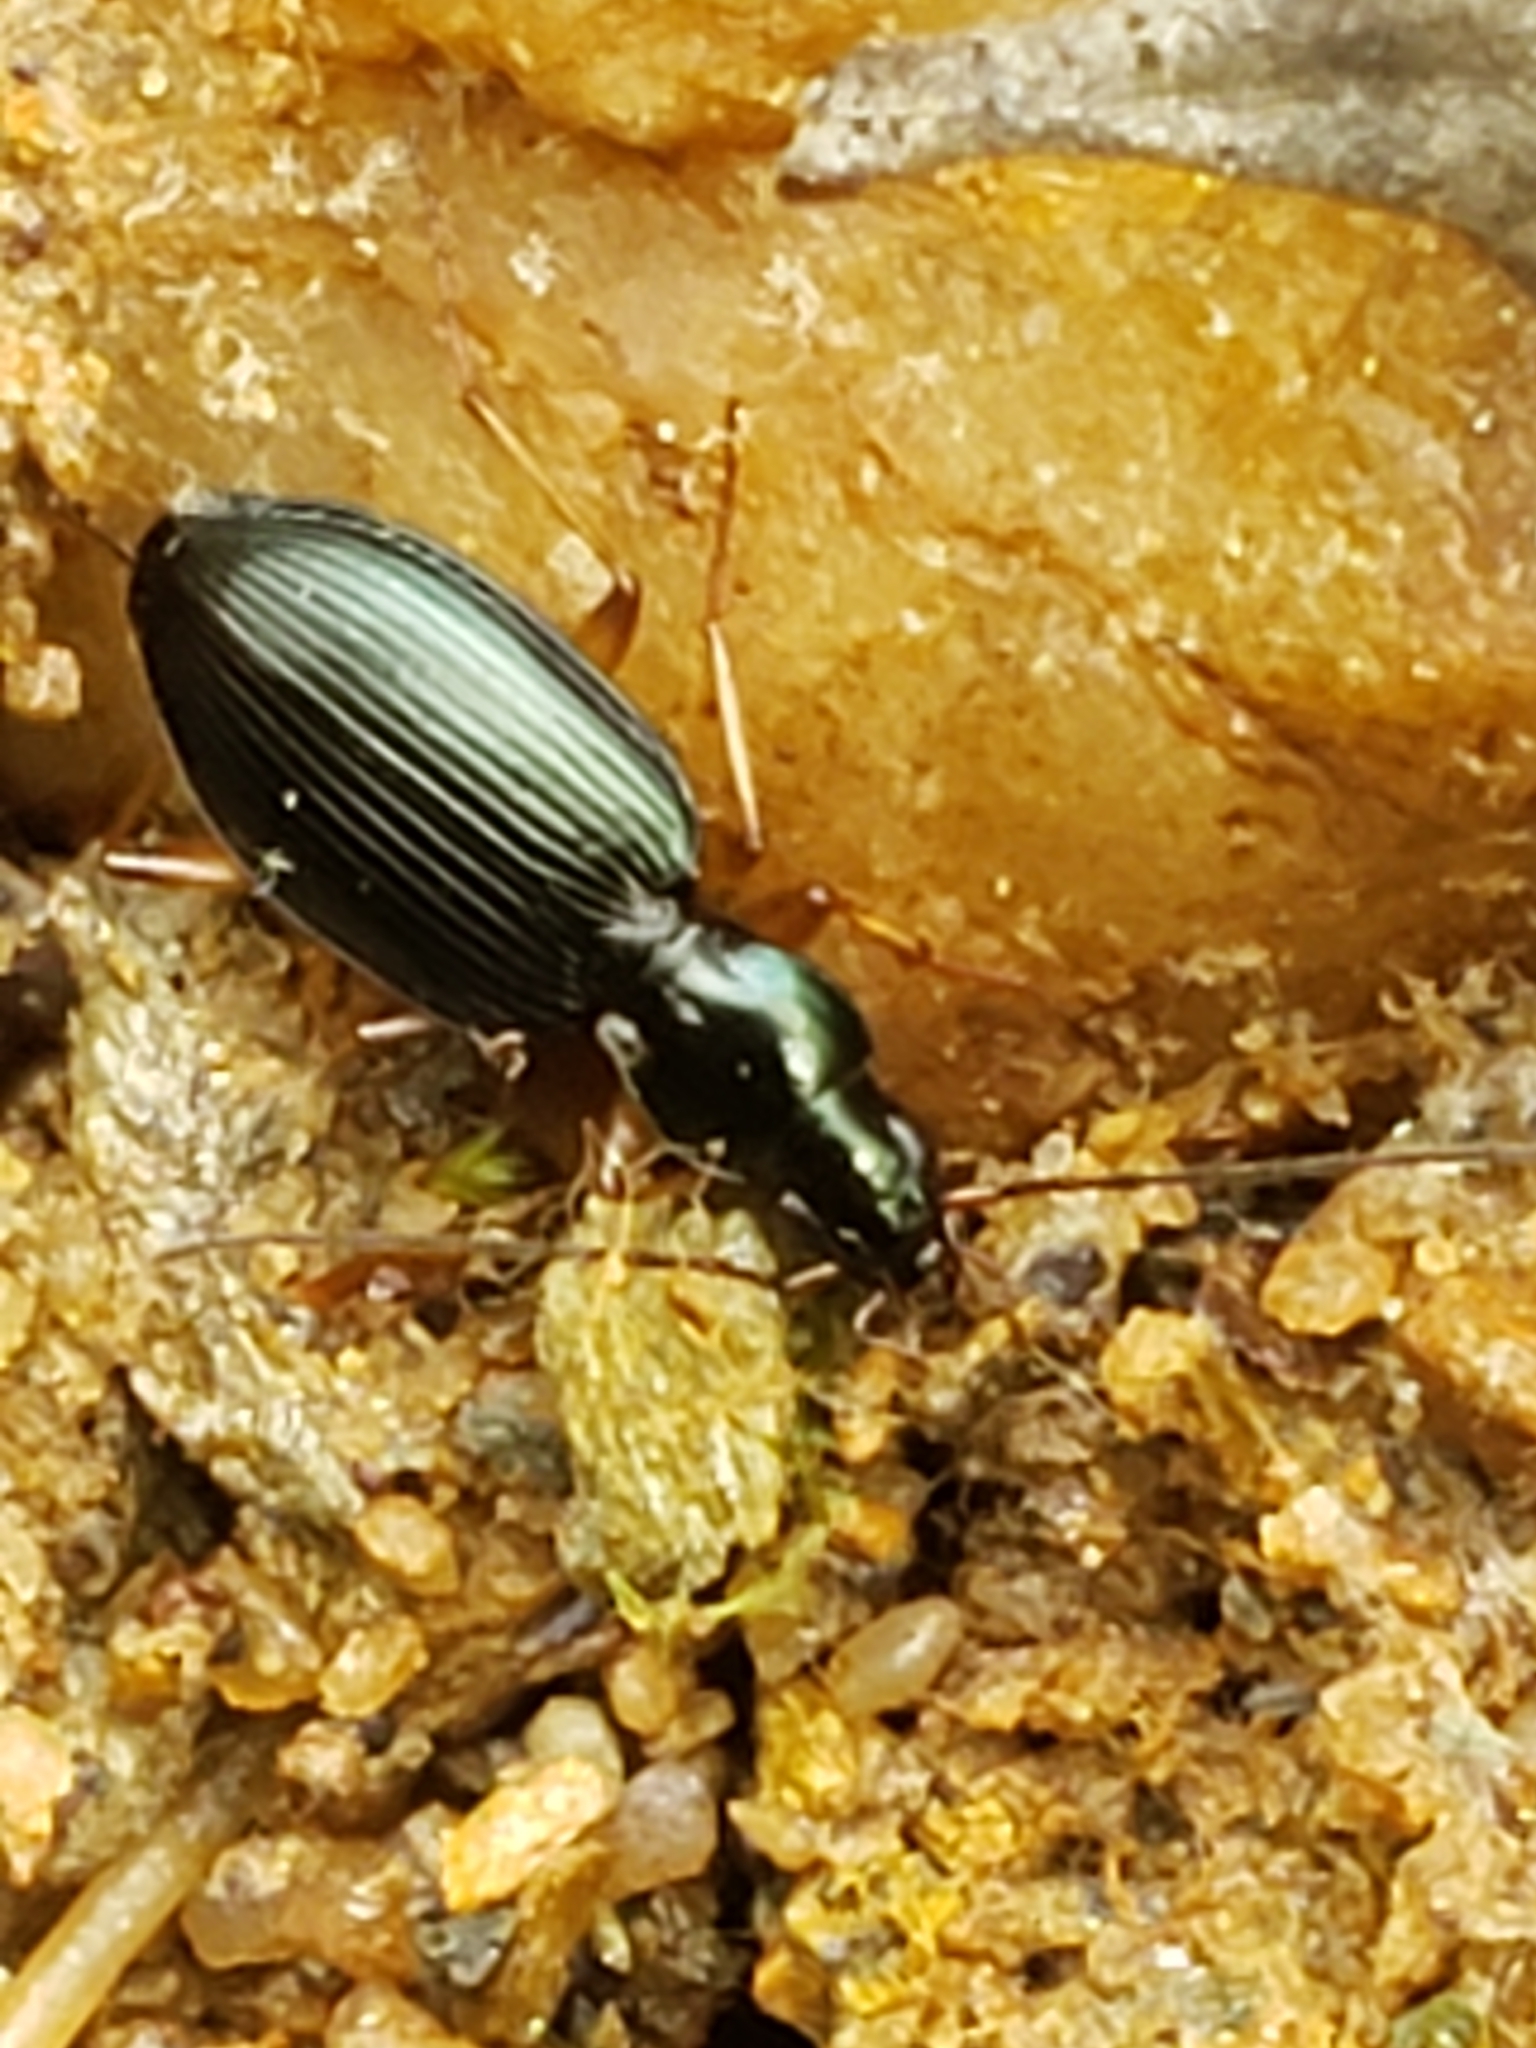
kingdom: Animalia
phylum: Arthropoda
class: Insecta
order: Coleoptera
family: Carabidae
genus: Agonum
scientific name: Agonum extensicolle
